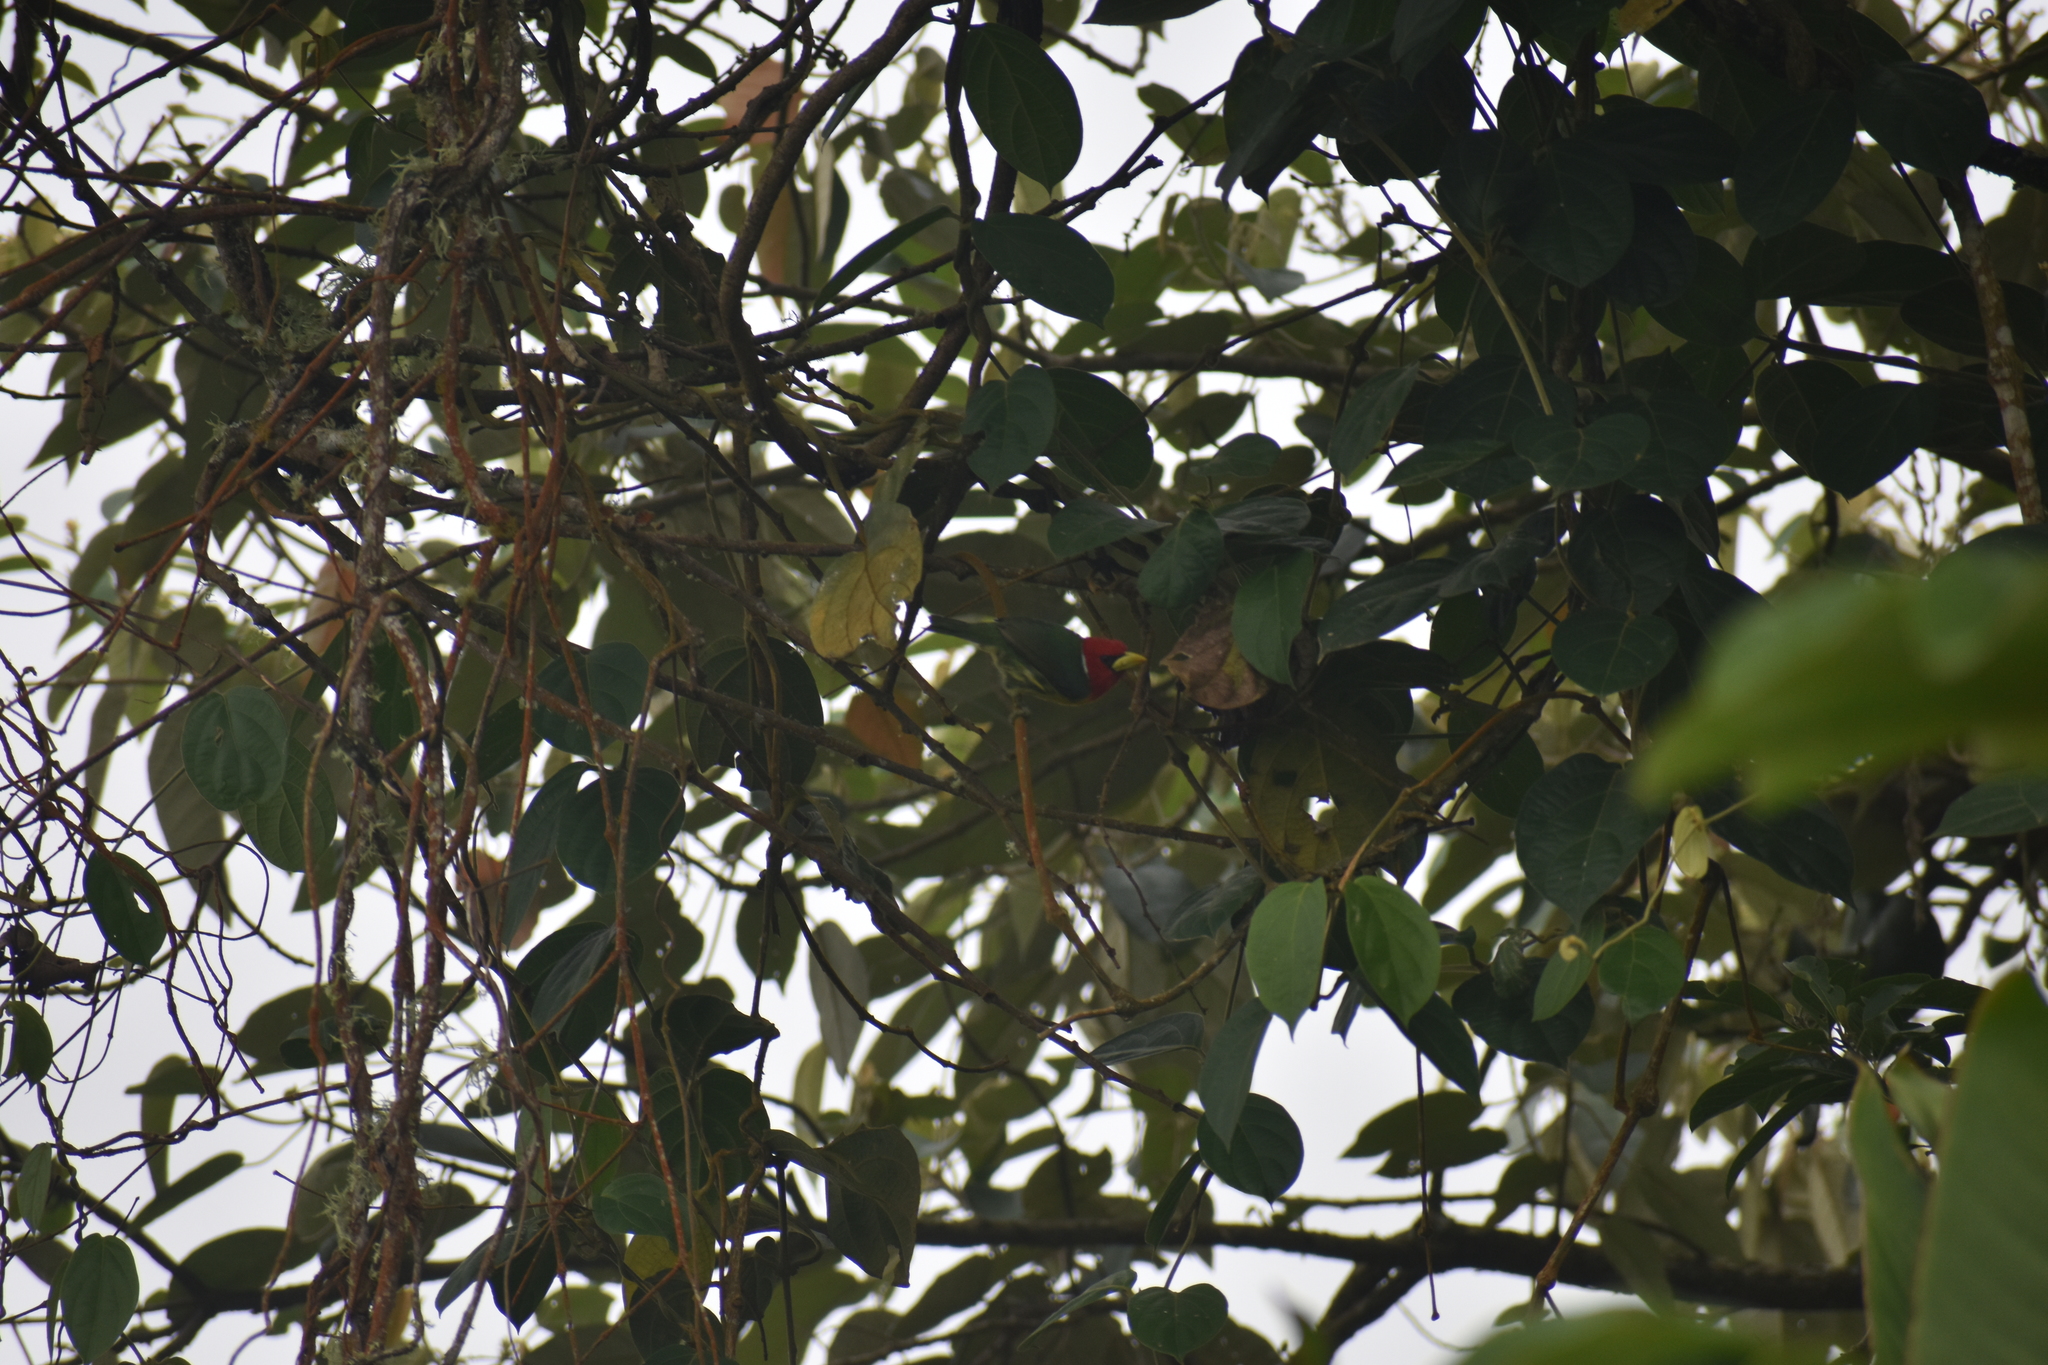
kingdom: Animalia
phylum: Chordata
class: Aves
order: Piciformes
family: Capitonidae
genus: Eubucco
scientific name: Eubucco bourcierii
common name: Red-headed barbet
